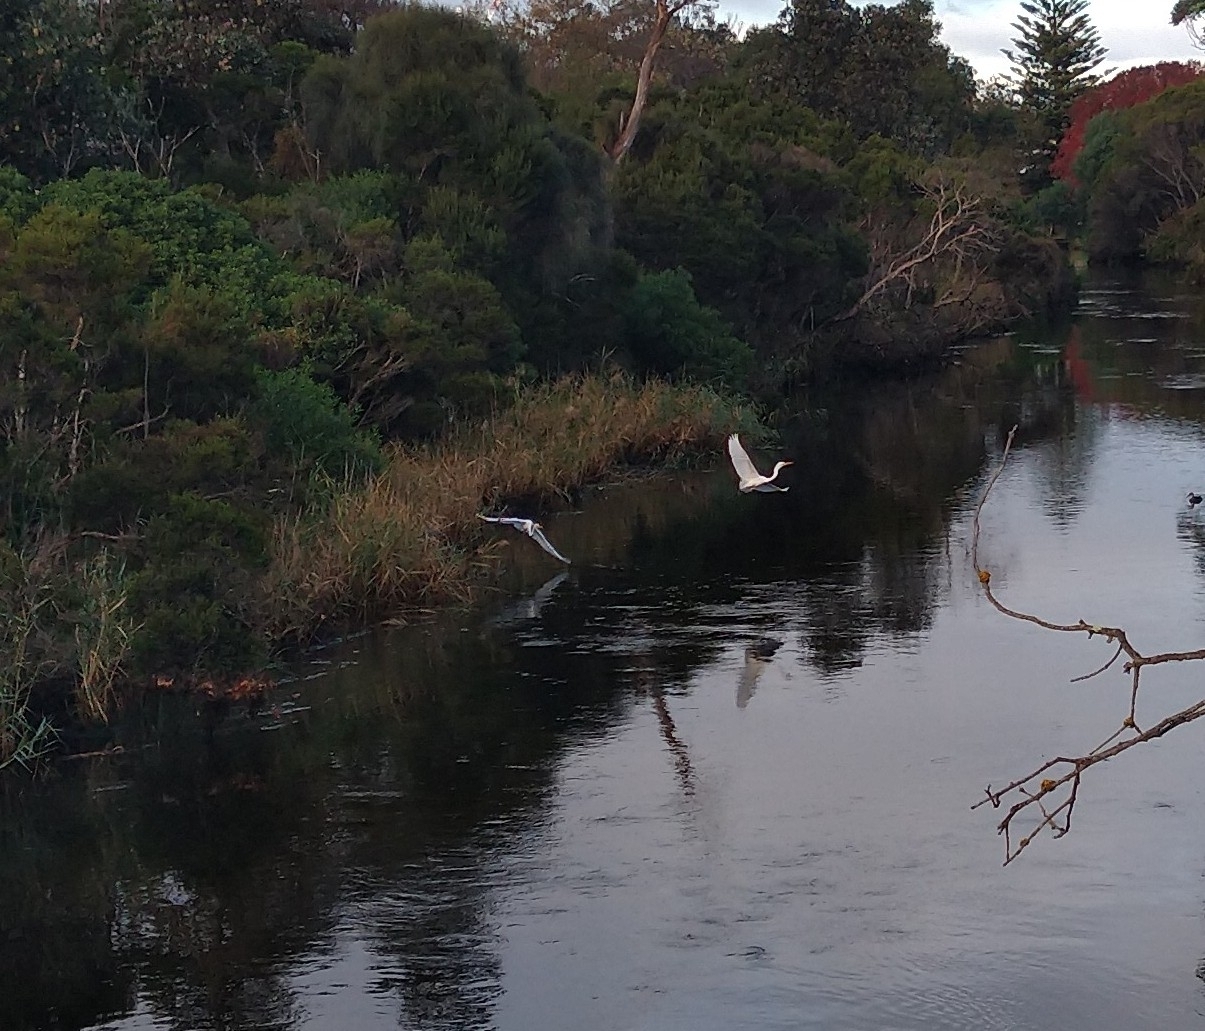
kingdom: Animalia
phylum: Chordata
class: Aves
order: Pelecaniformes
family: Ardeidae
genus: Ardea
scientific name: Ardea modesta
